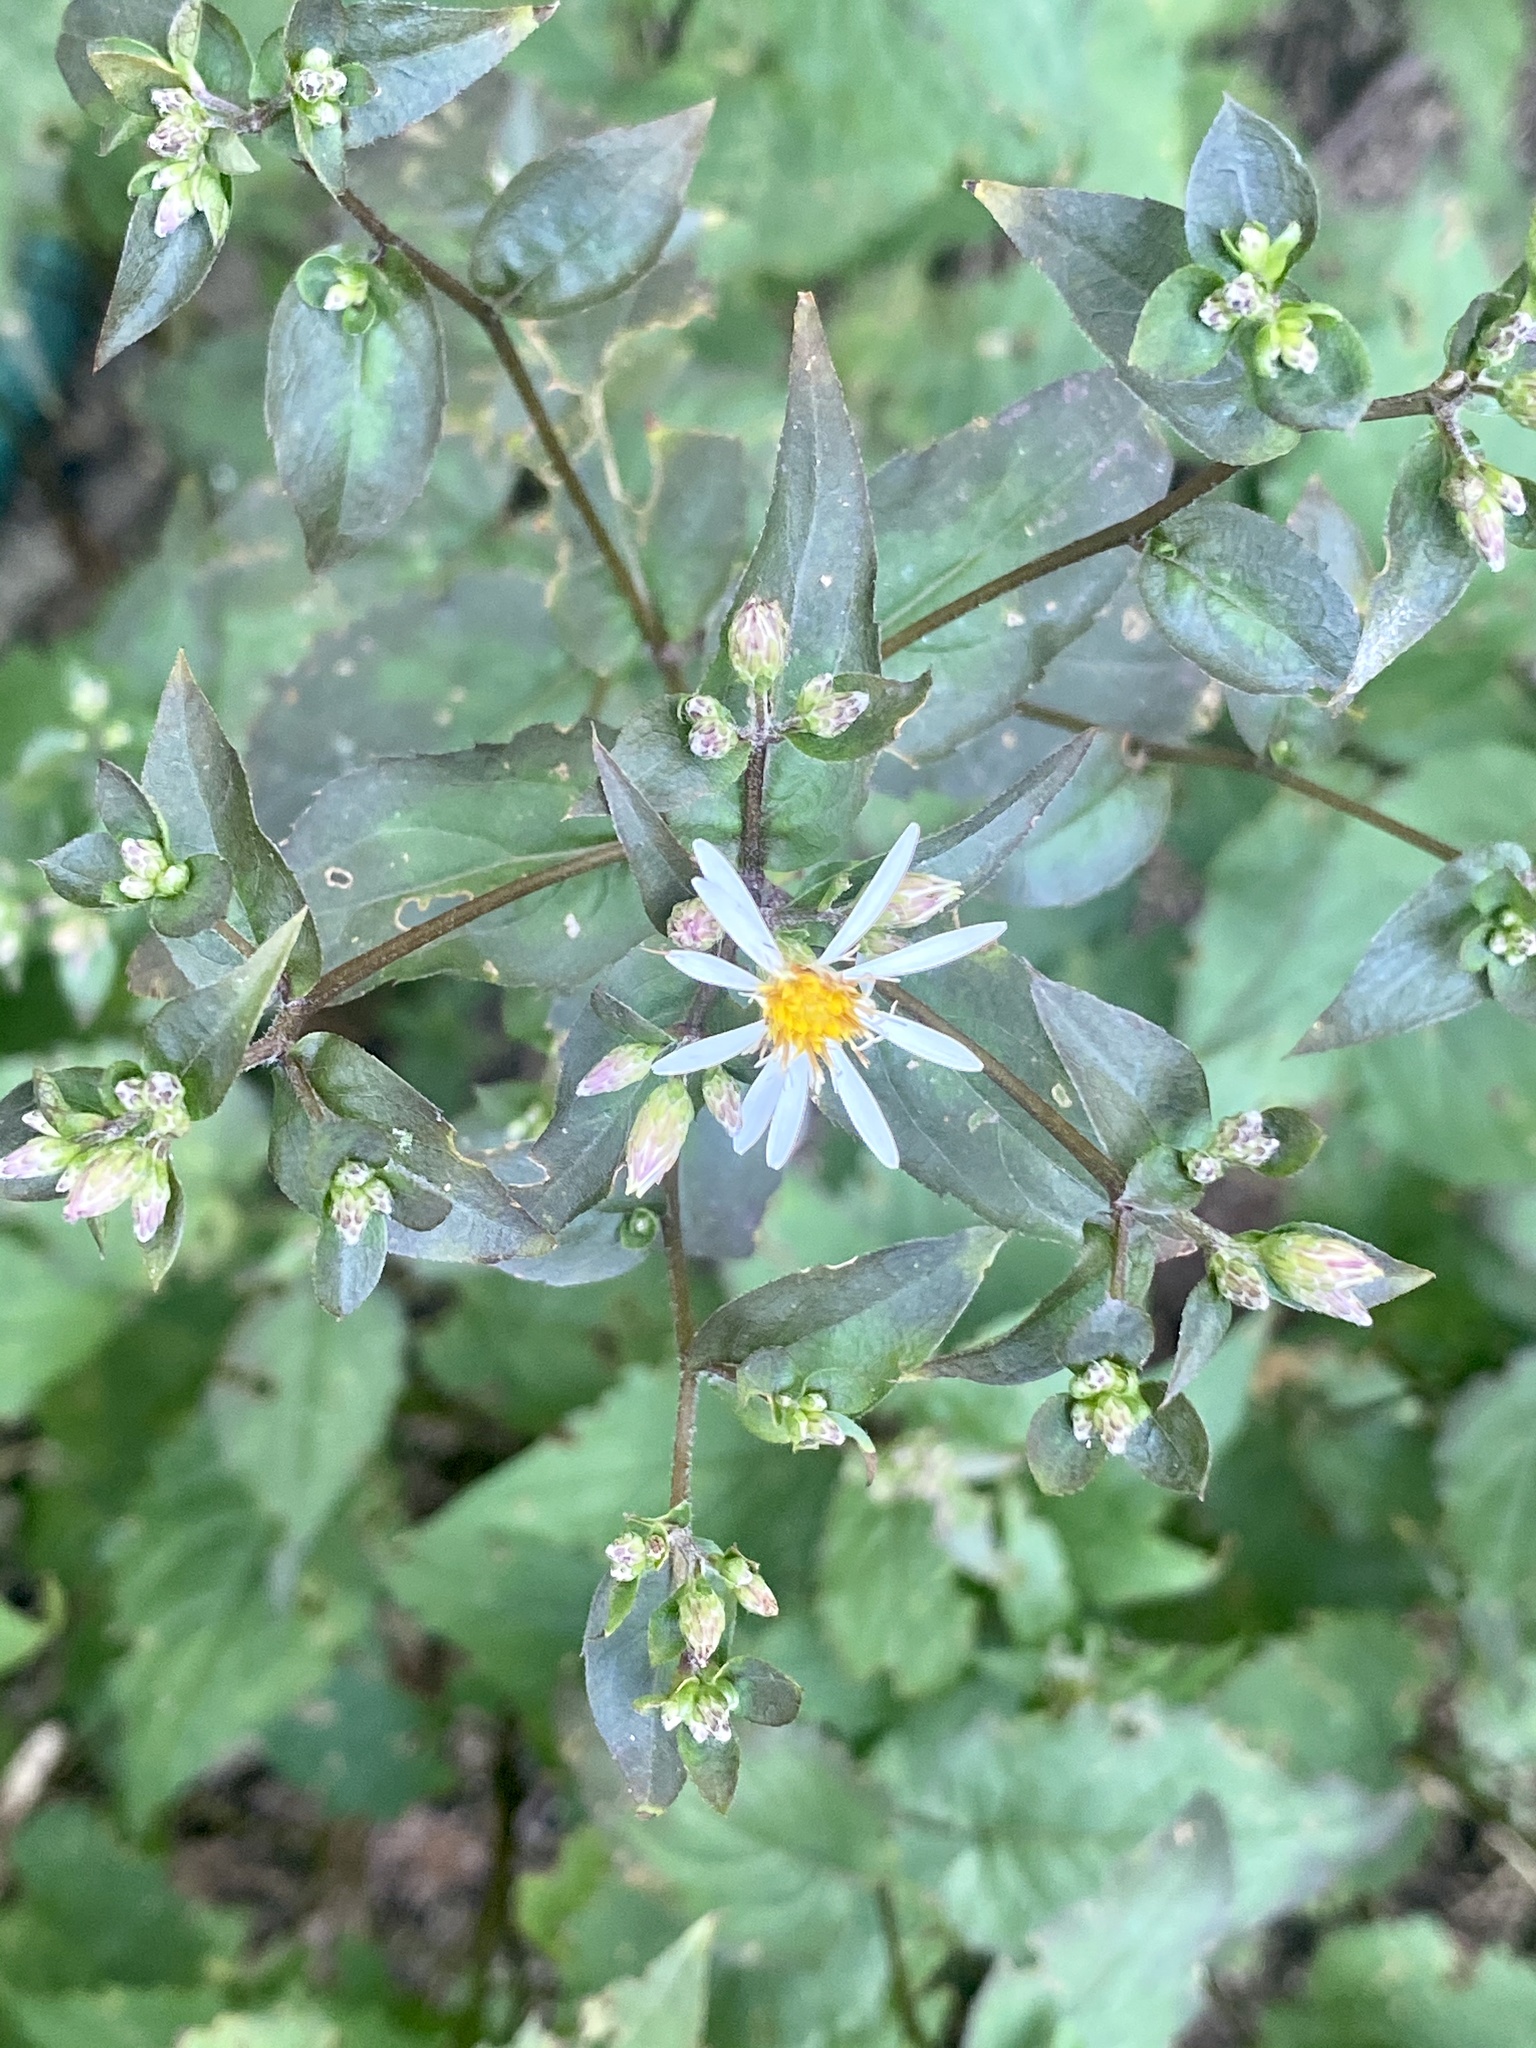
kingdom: Plantae
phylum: Tracheophyta
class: Magnoliopsida
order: Asterales
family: Asteraceae
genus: Eurybia
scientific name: Eurybia divaricata
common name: White wood aster
